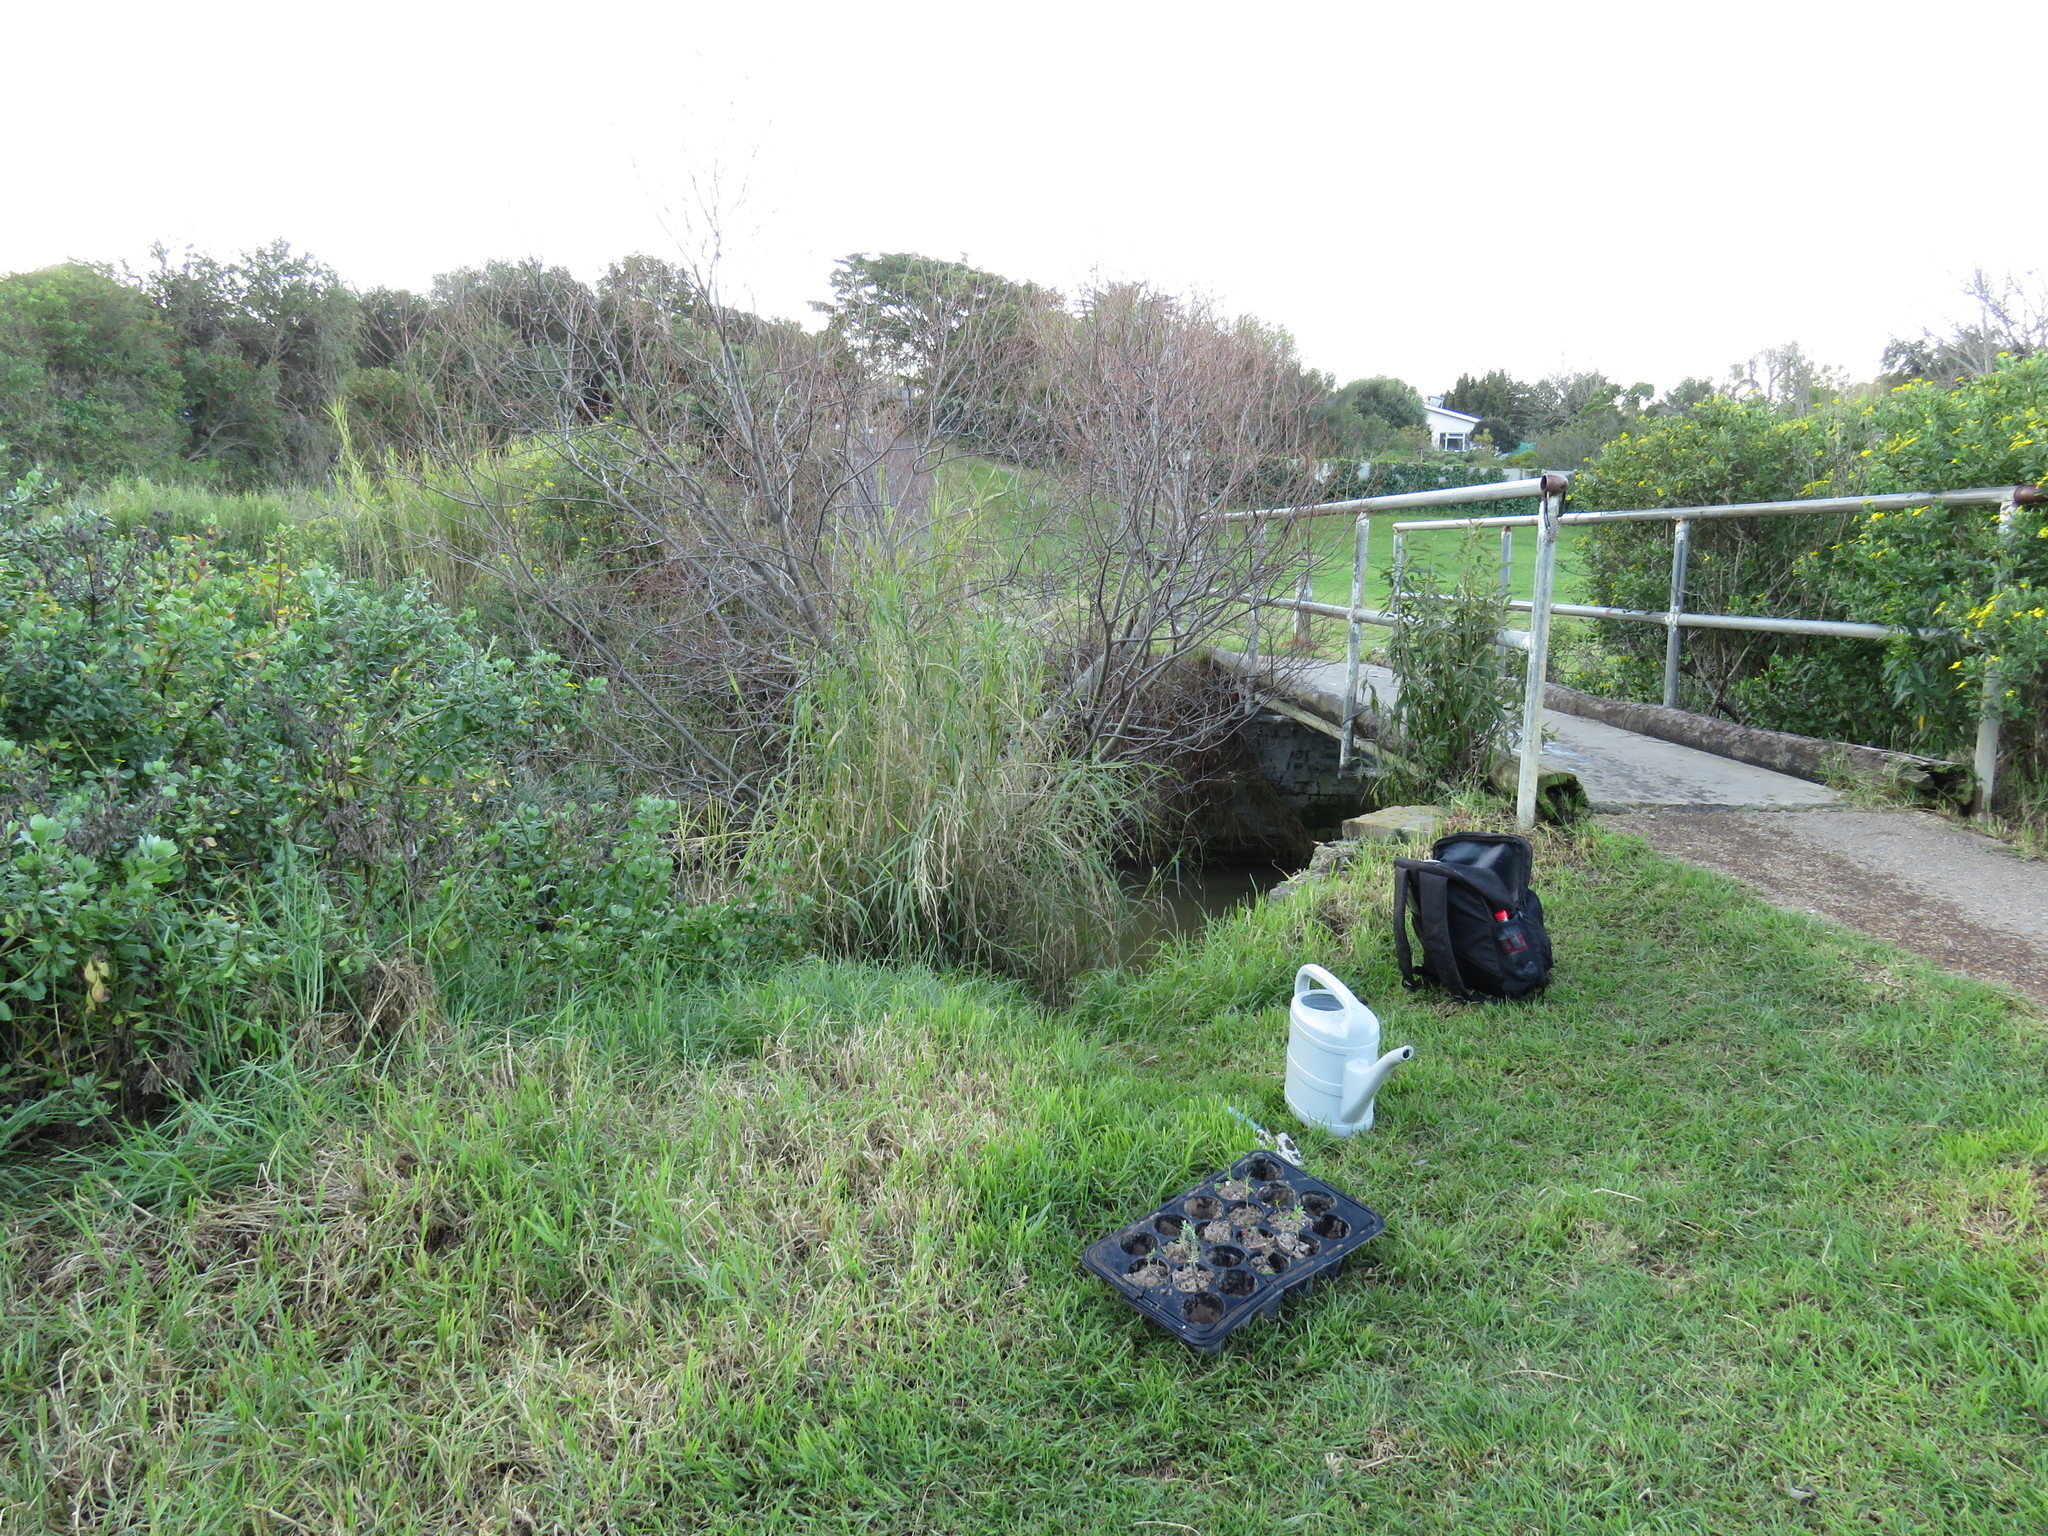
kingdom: Plantae
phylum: Tracheophyta
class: Magnoliopsida
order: Fabales
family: Fabaceae
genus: Psoralea
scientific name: Psoralea fascicularis
